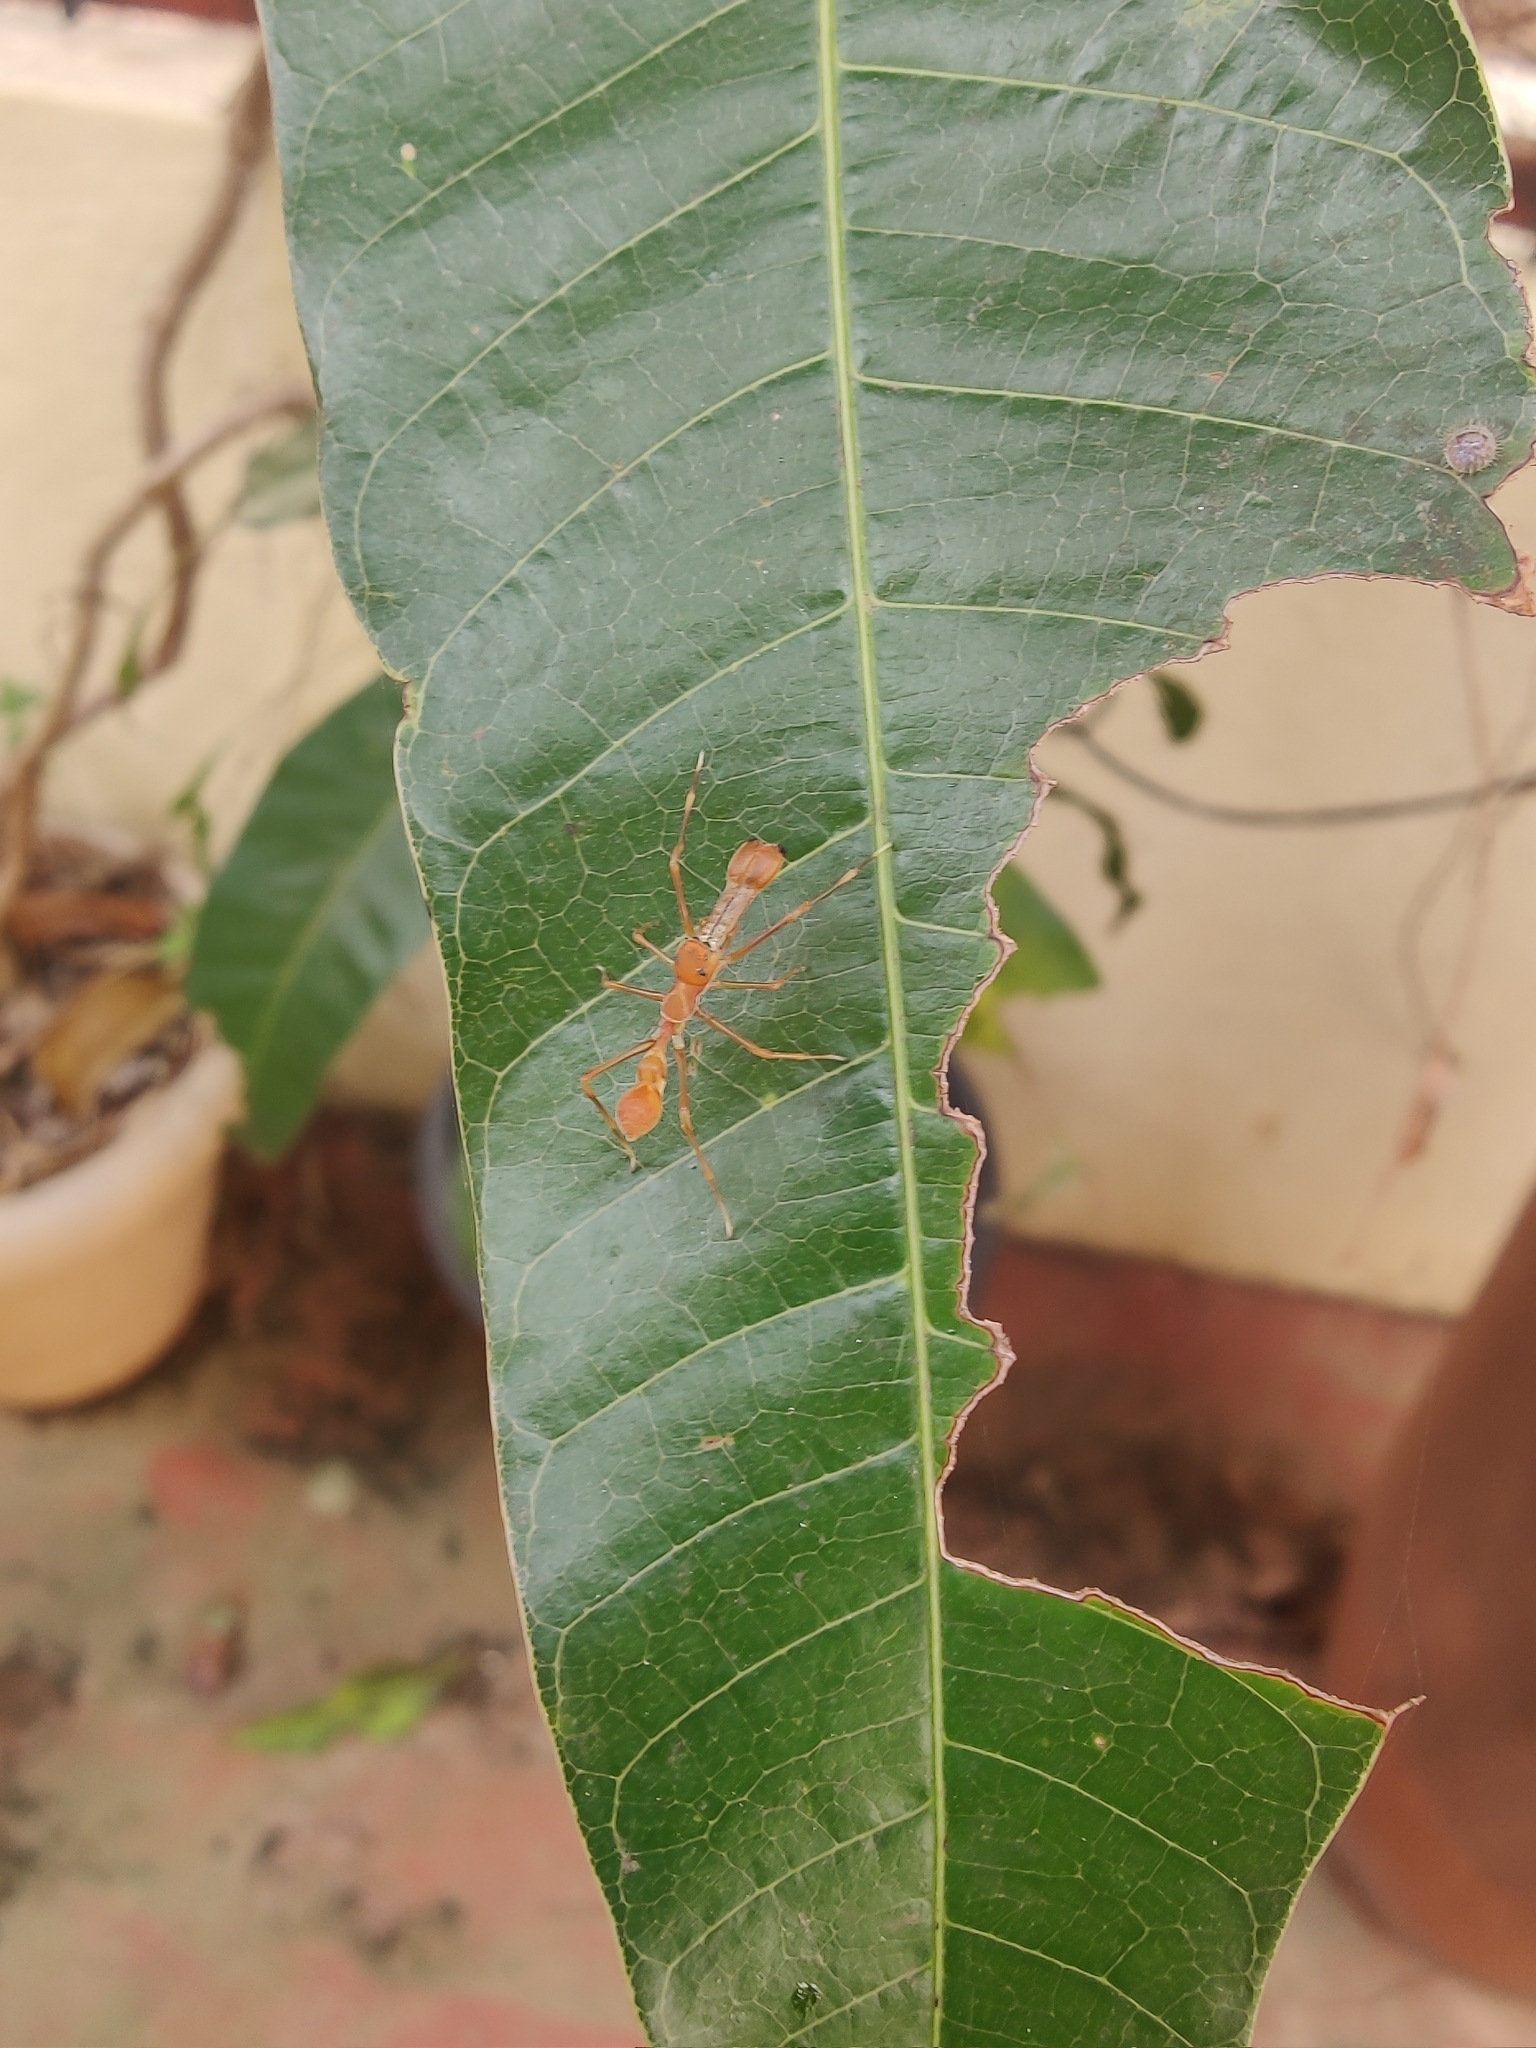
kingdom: Animalia
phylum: Arthropoda
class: Arachnida
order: Araneae
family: Salticidae
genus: Myrmaplata
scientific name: Myrmaplata plataleoides
